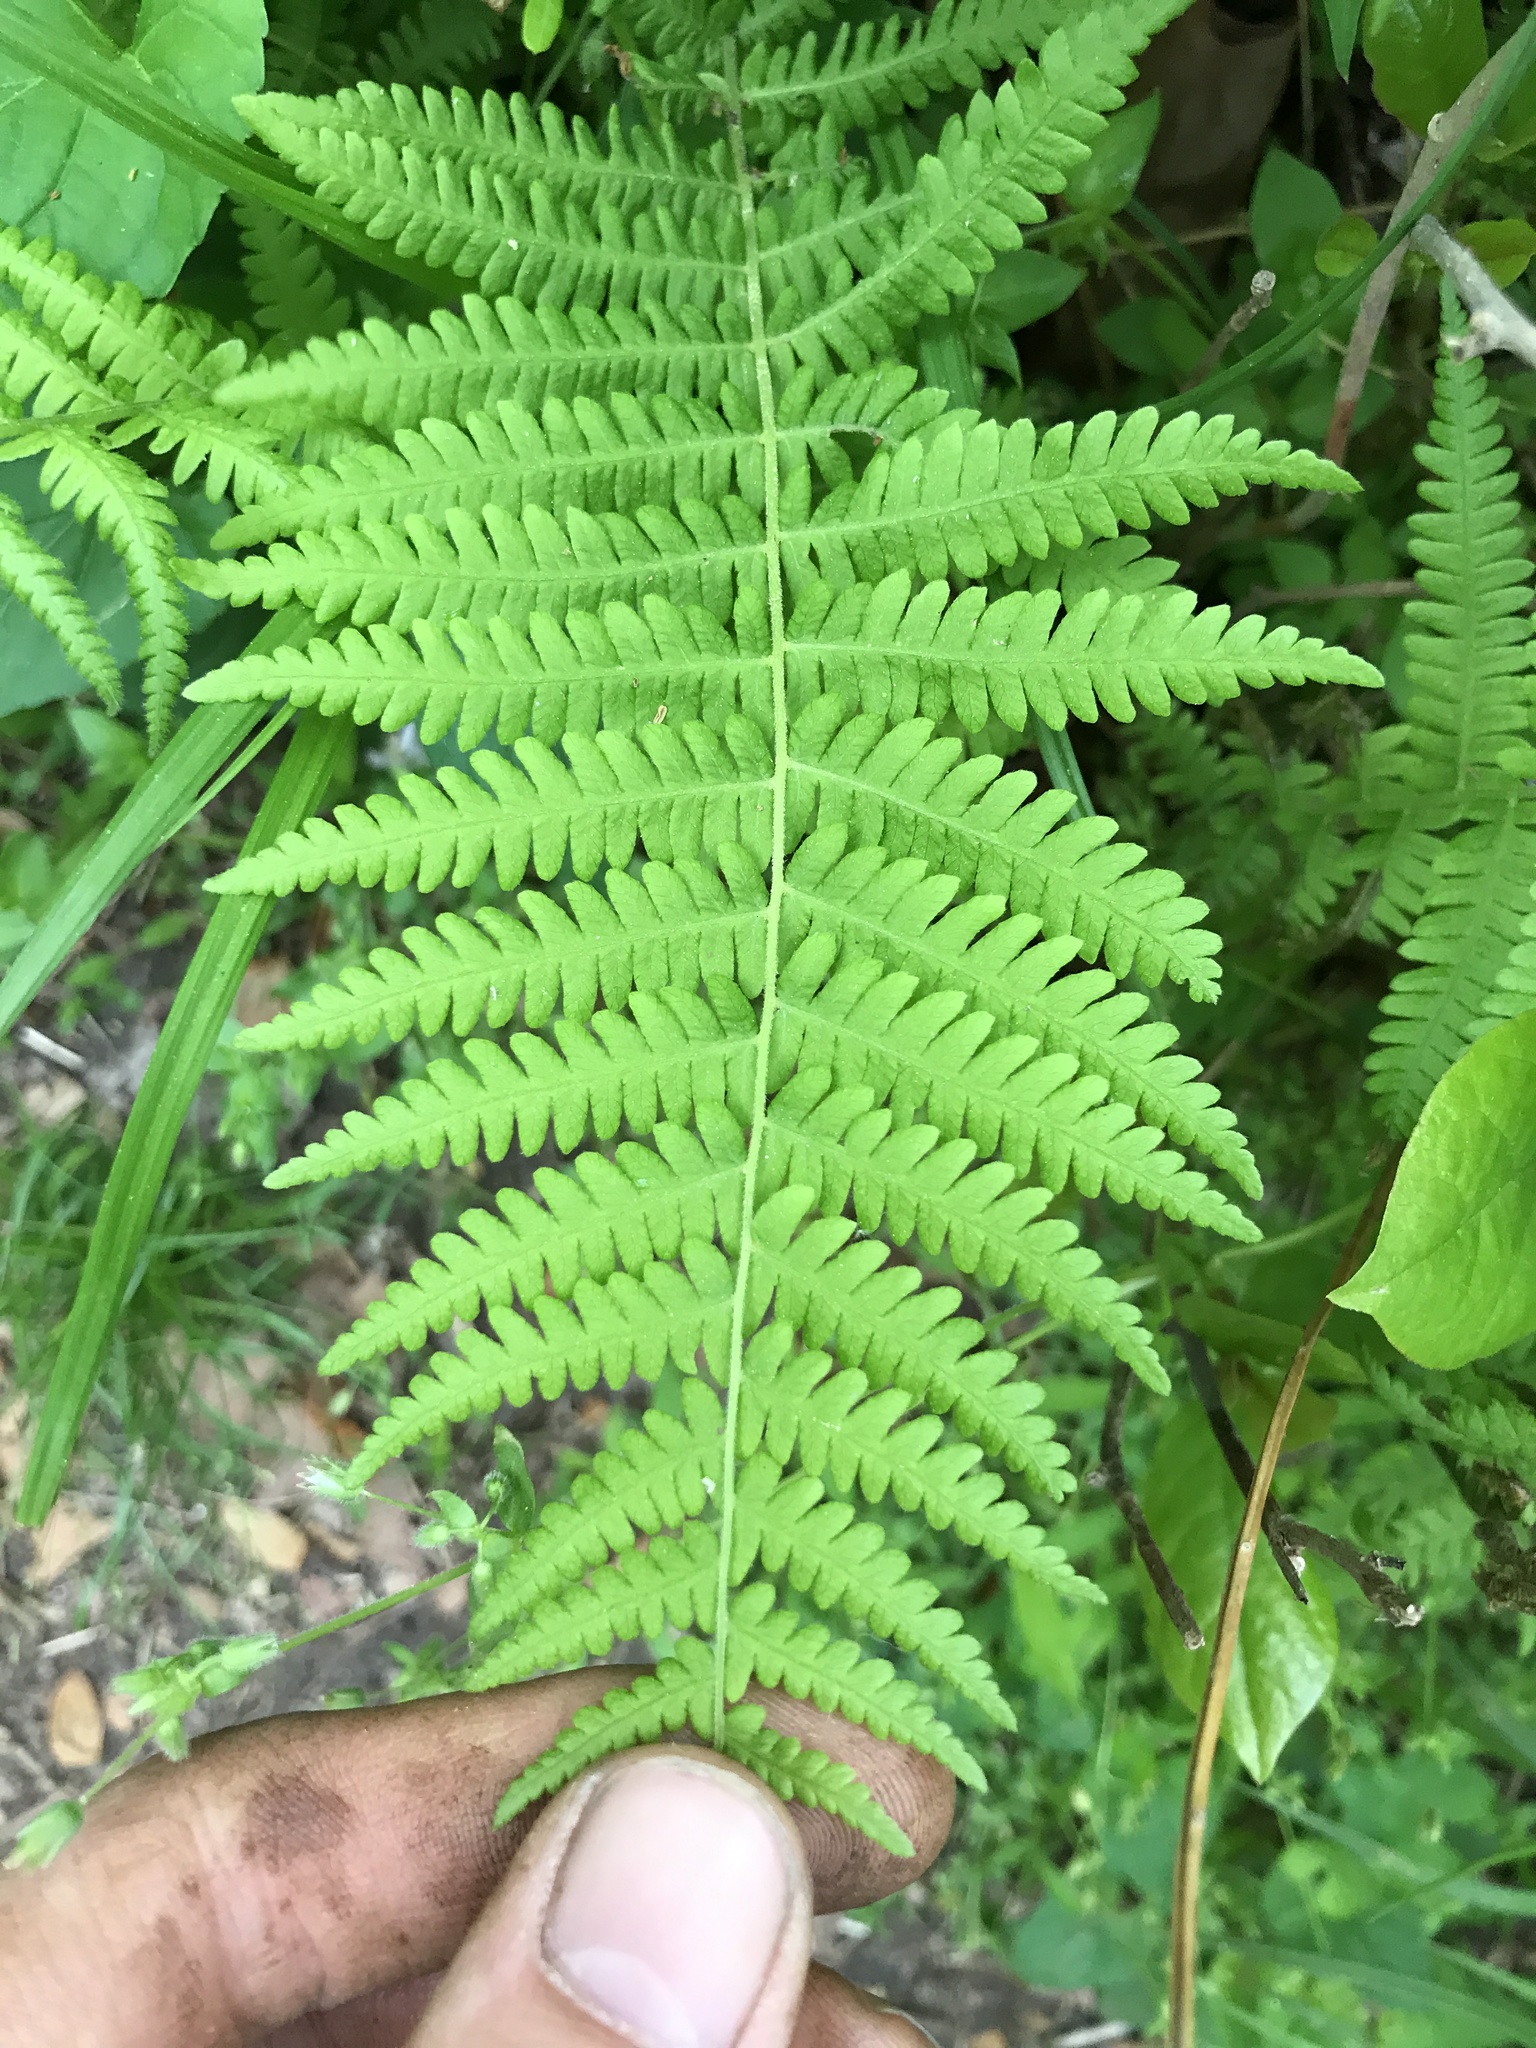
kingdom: Plantae
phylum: Tracheophyta
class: Polypodiopsida
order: Polypodiales
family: Thelypteridaceae
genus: Amauropelta
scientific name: Amauropelta noveboracensis
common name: New york fern
